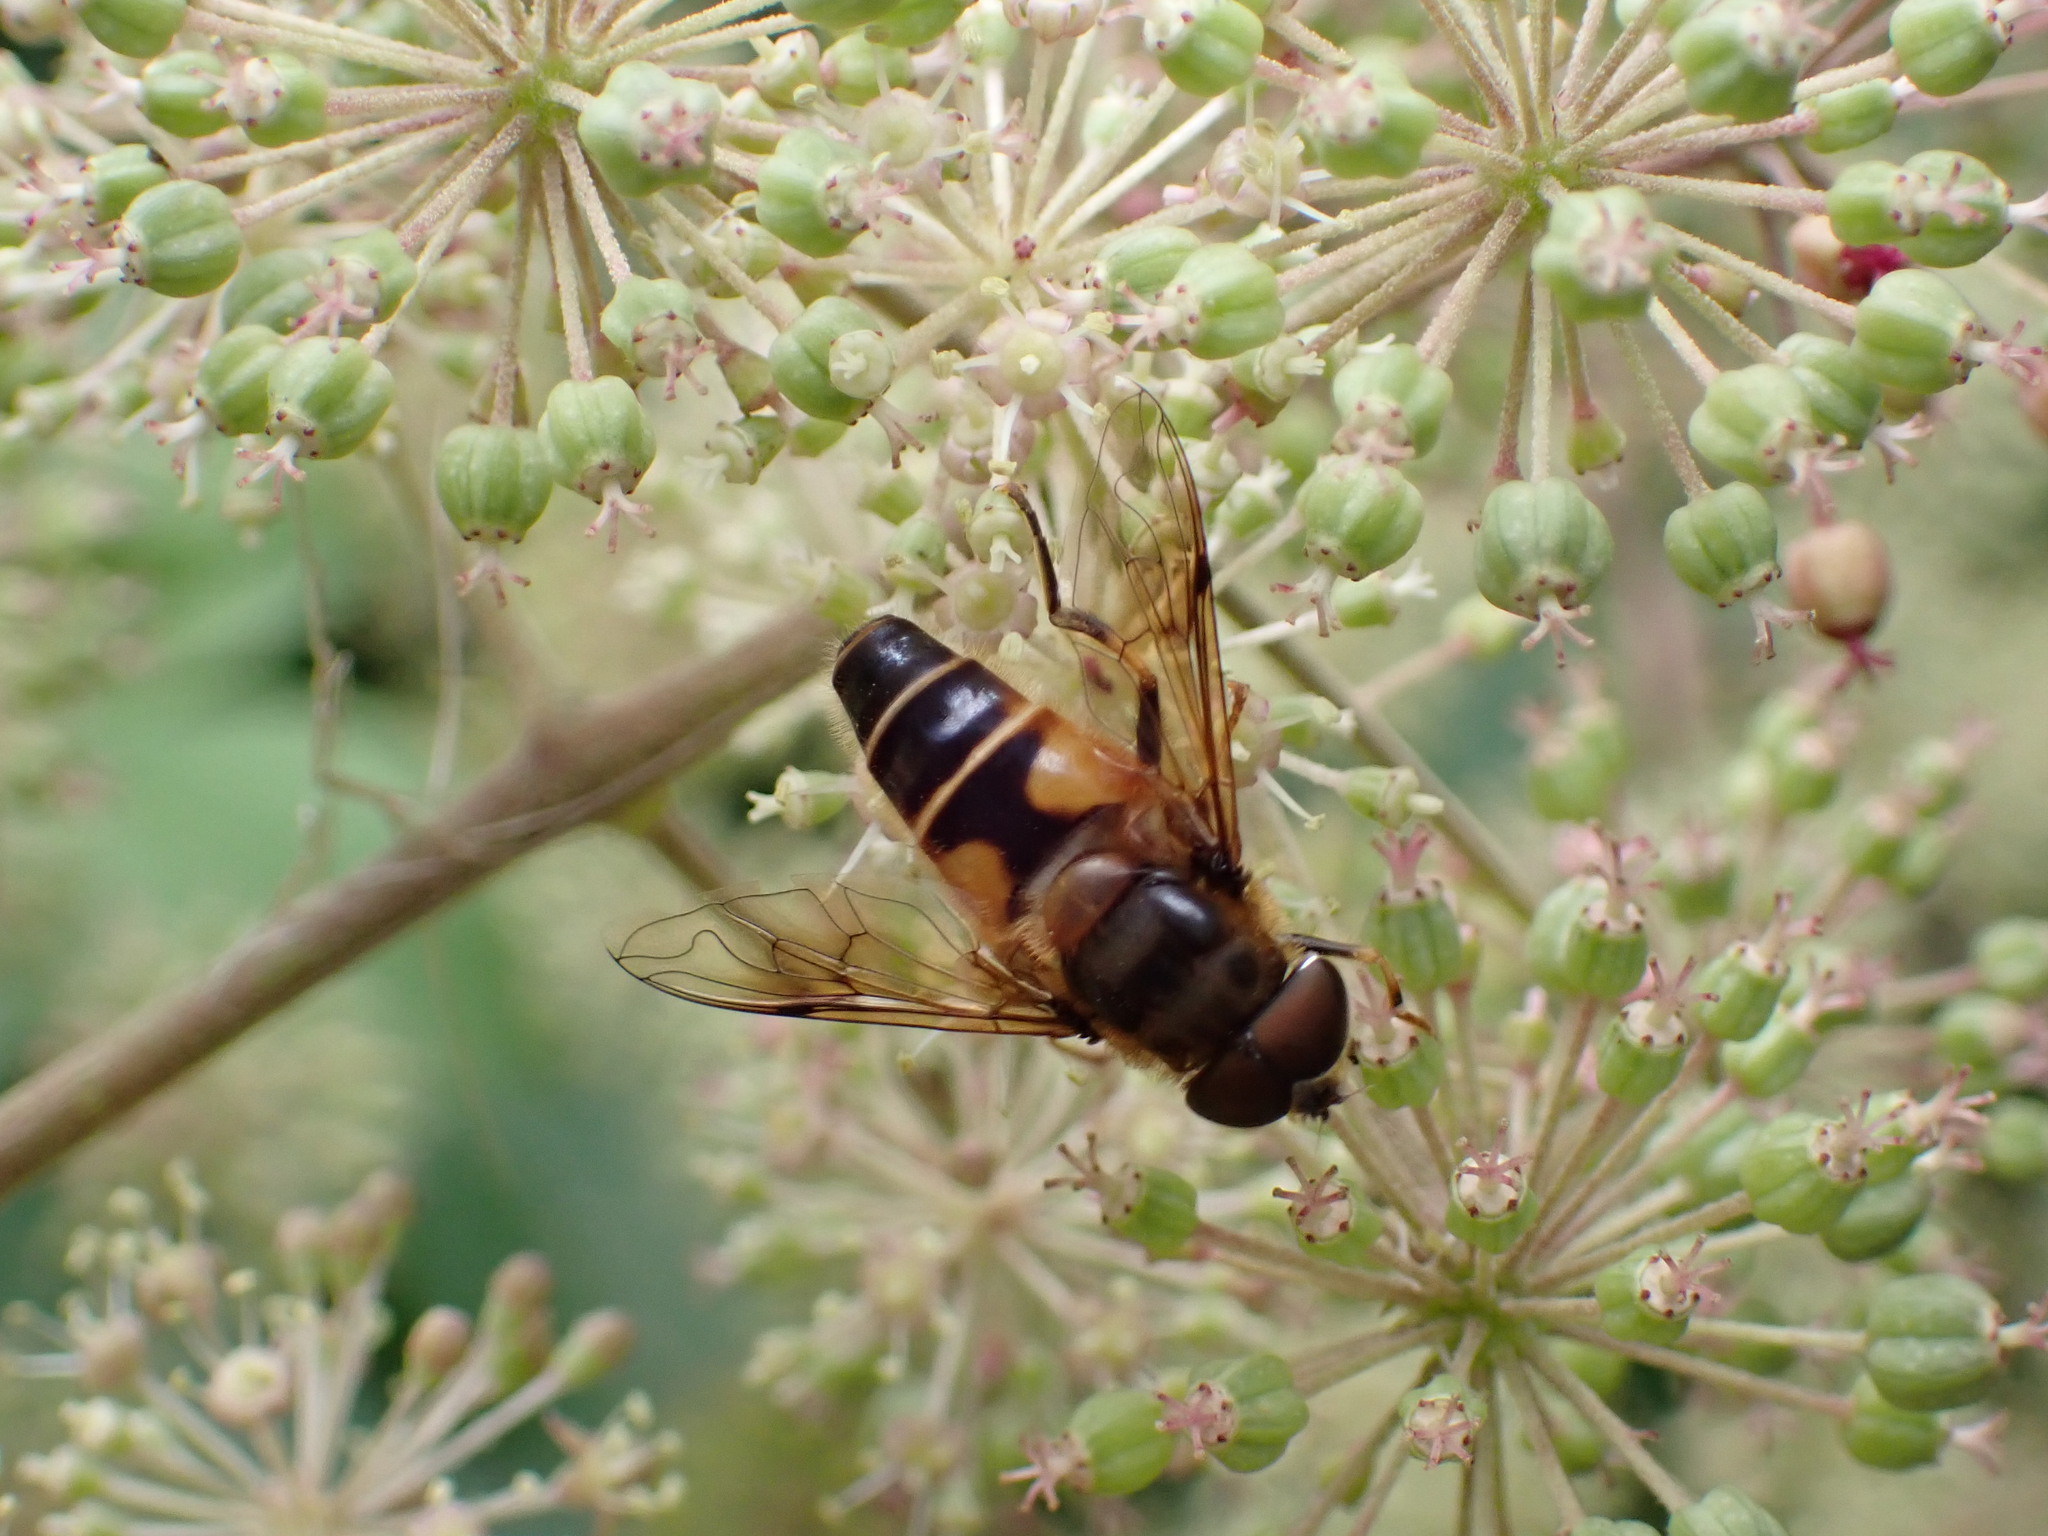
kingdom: Animalia
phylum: Arthropoda
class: Insecta
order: Diptera
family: Syrphidae
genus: Eristalis
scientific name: Eristalis pertinax
